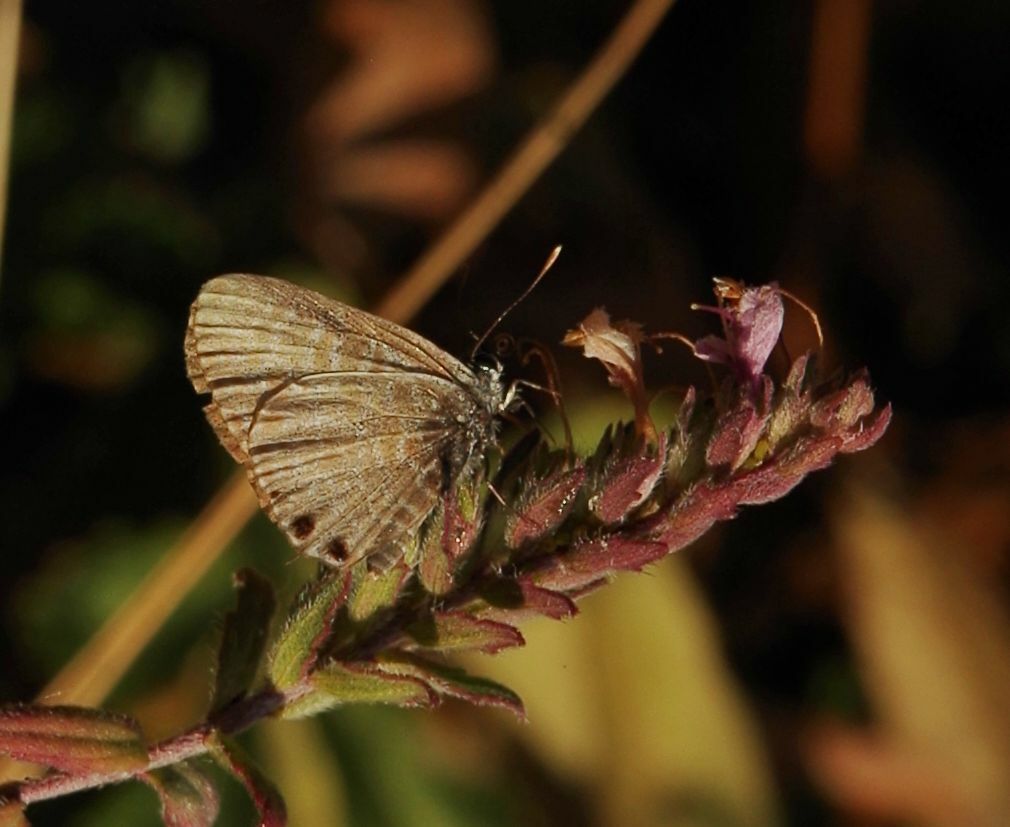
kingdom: Animalia
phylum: Arthropoda
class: Insecta
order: Lepidoptera
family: Lycaenidae
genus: Leptotes
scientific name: Leptotes pirithous
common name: Lang's short-tailed blue
